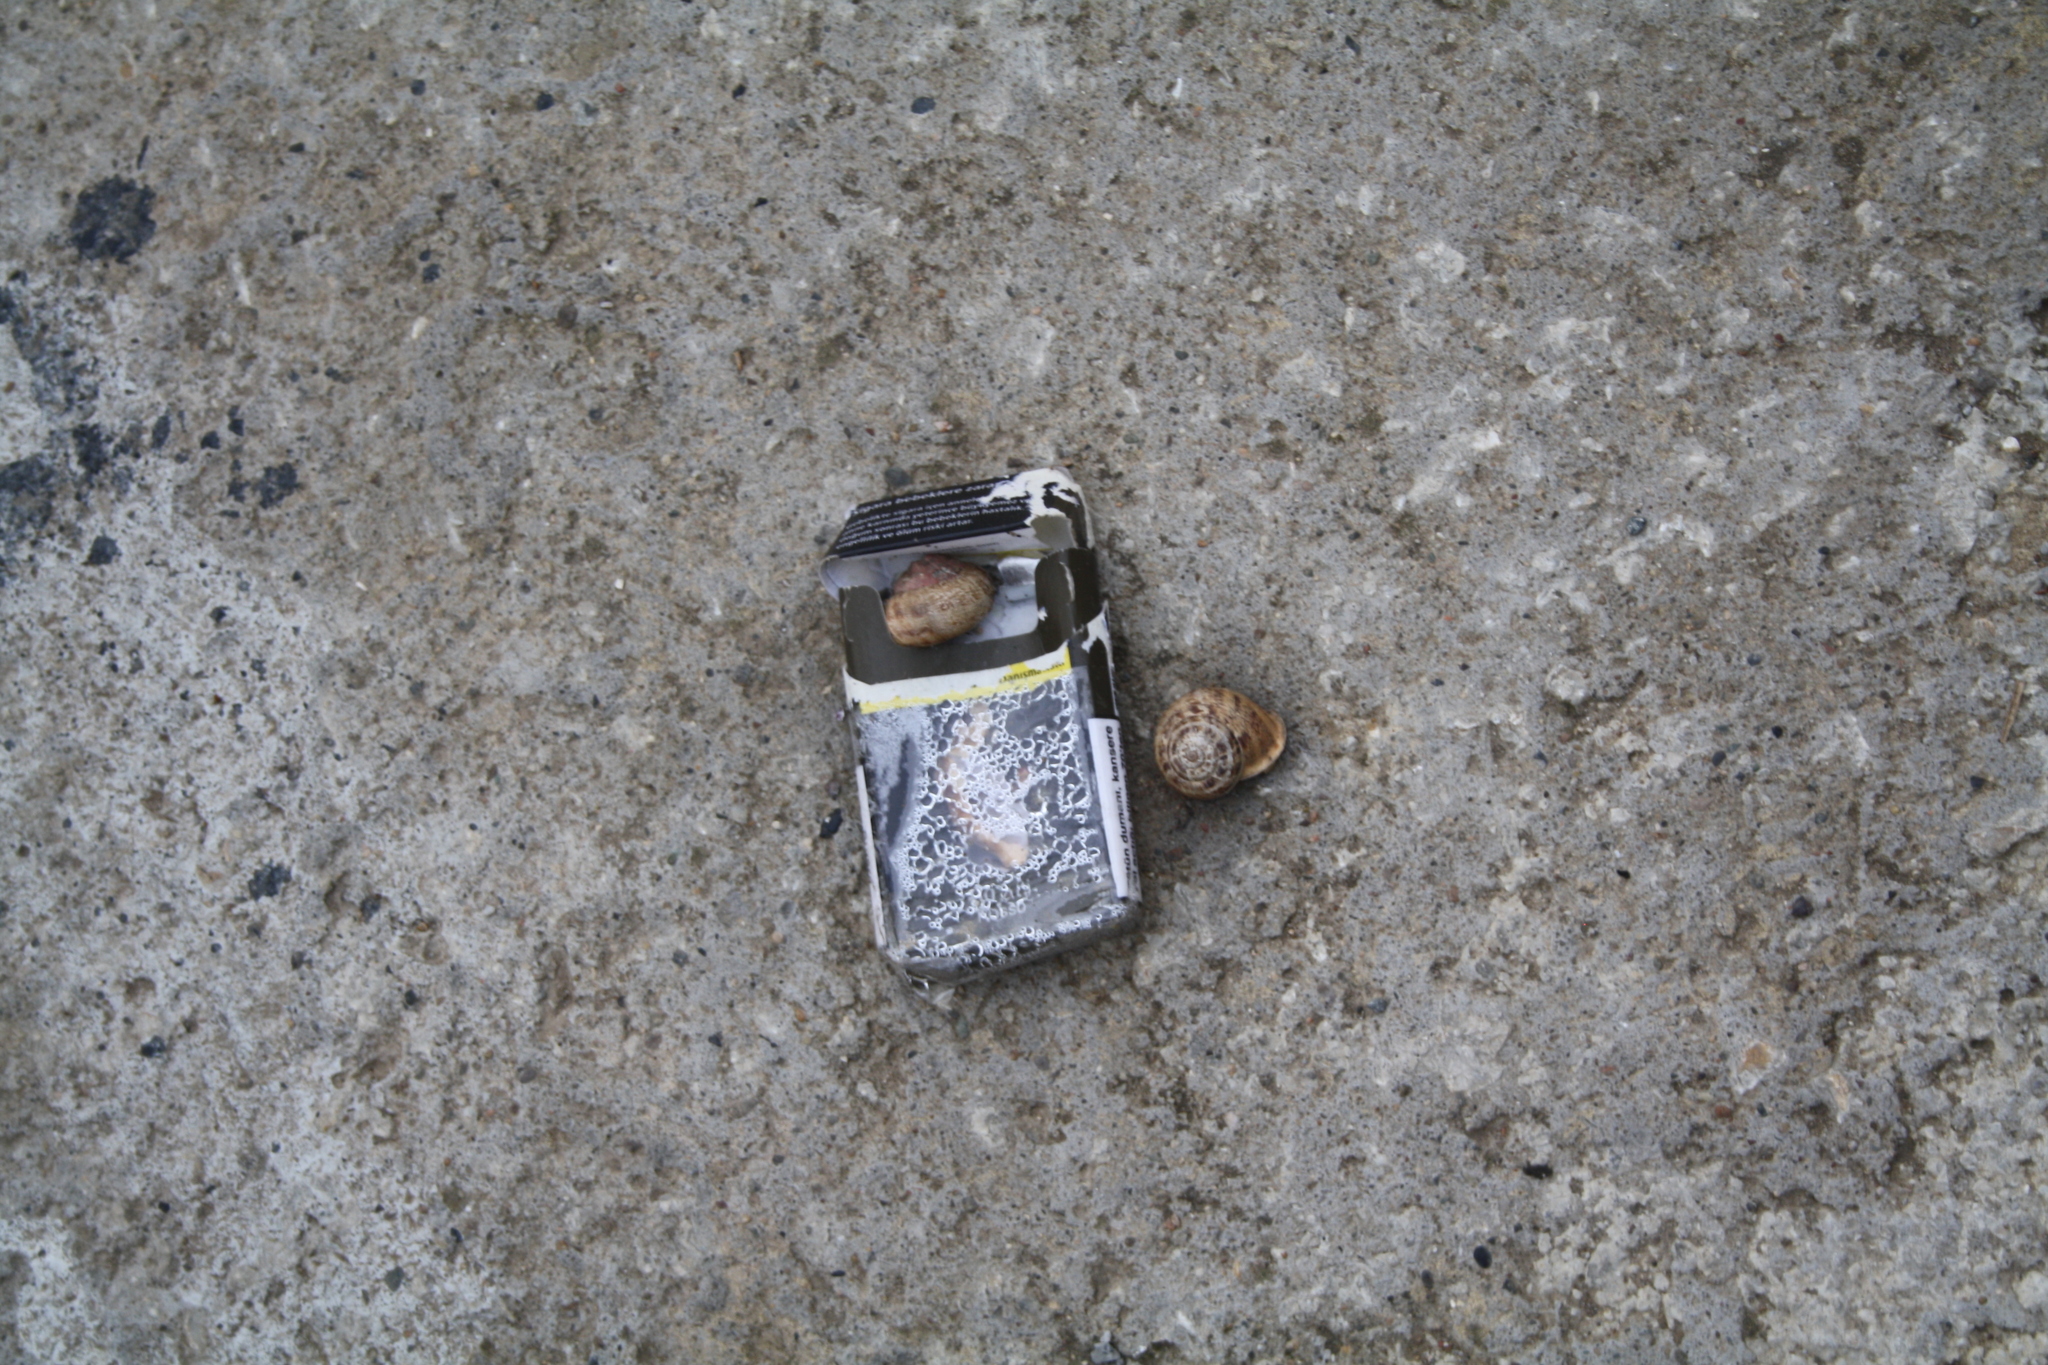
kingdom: Animalia
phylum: Mollusca
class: Gastropoda
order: Stylommatophora
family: Helicidae
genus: Eobania
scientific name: Eobania vermiculata
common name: Chocolateband snail
